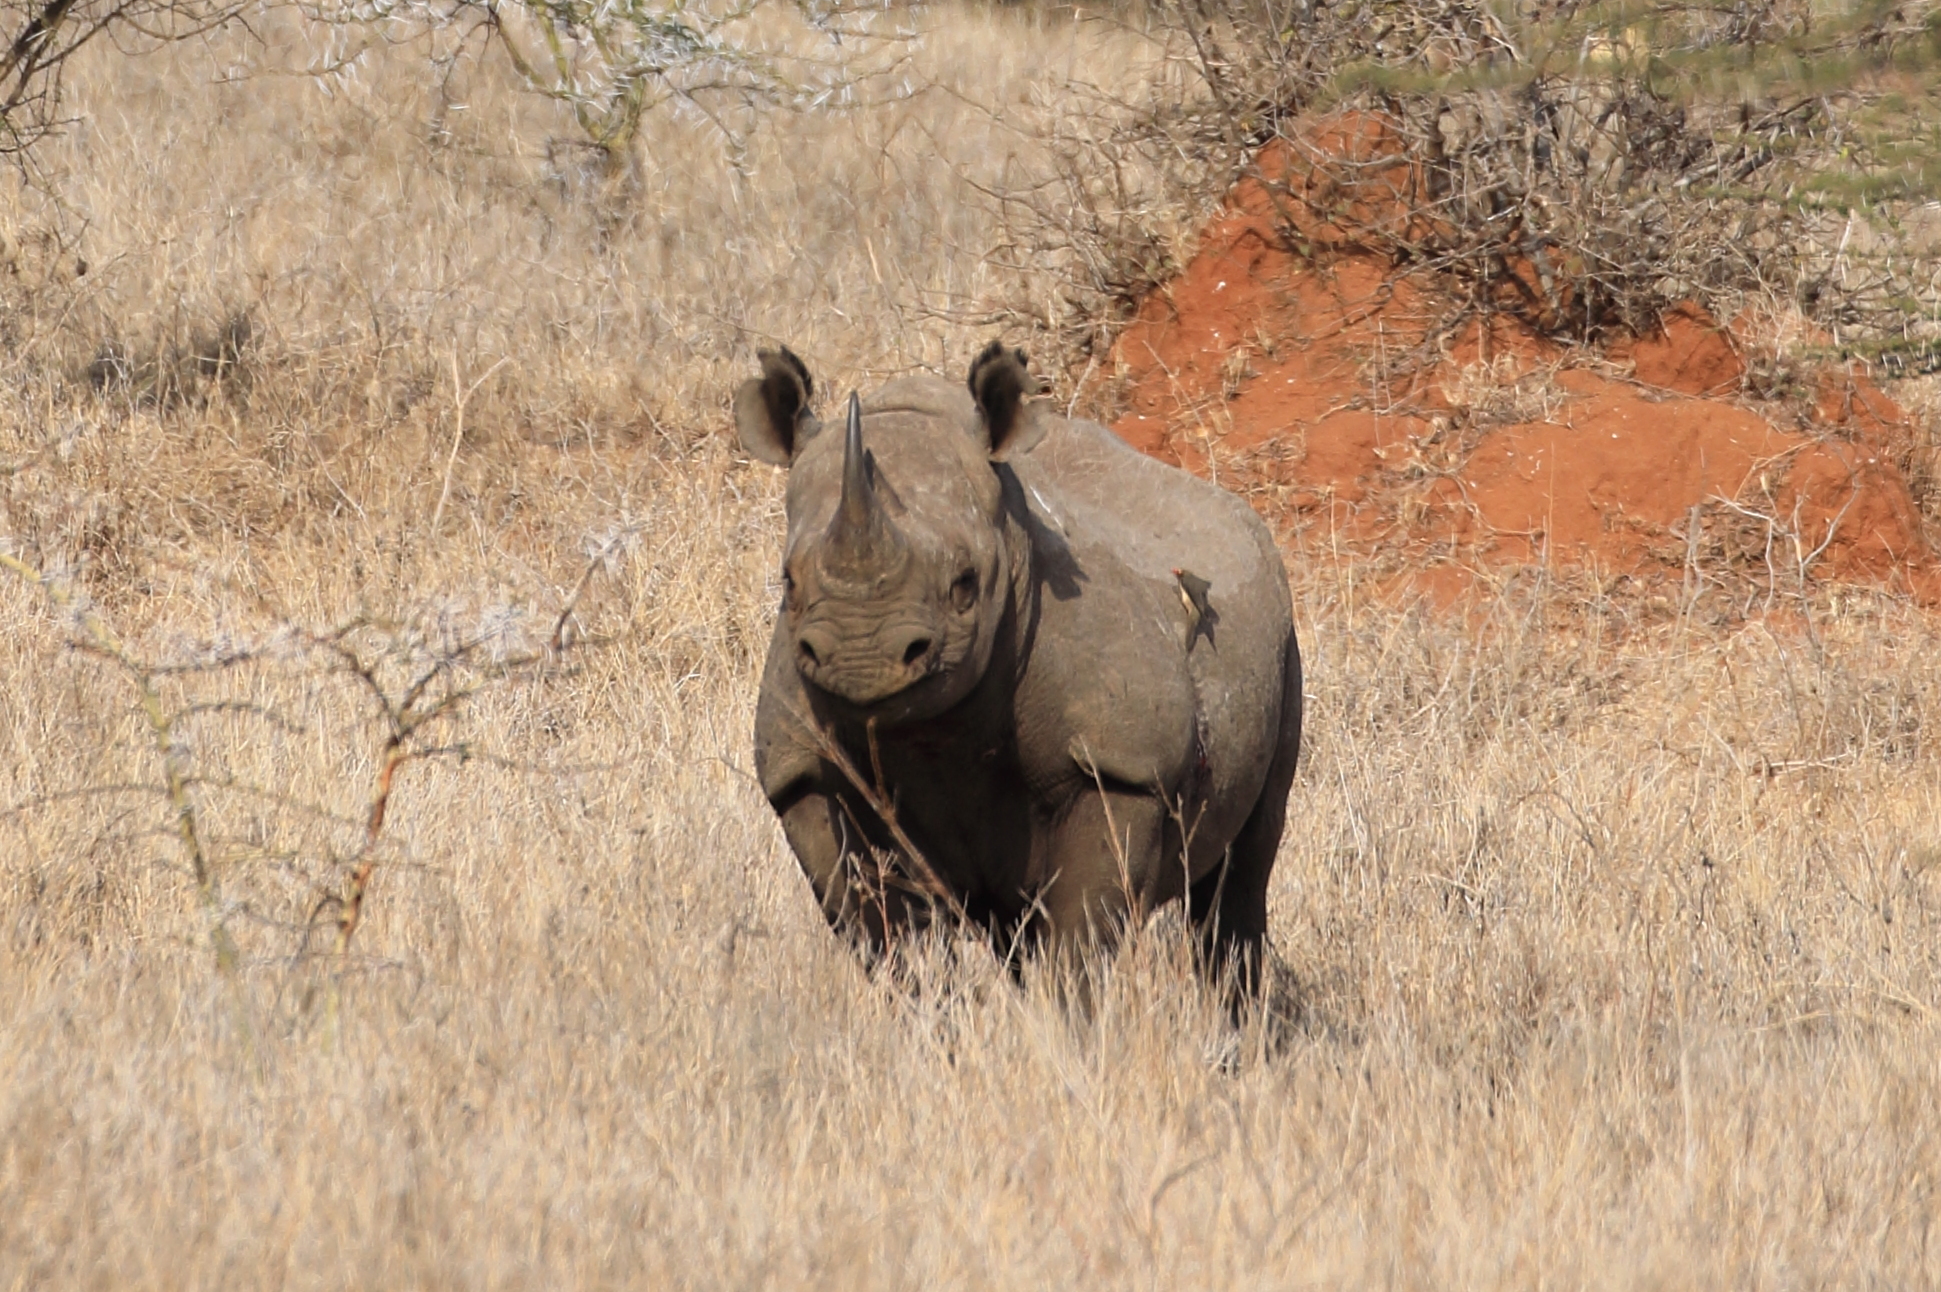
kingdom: Animalia
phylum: Chordata
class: Mammalia
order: Perissodactyla
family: Rhinocerotidae
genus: Diceros
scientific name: Diceros bicornis
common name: Black rhinoceros
